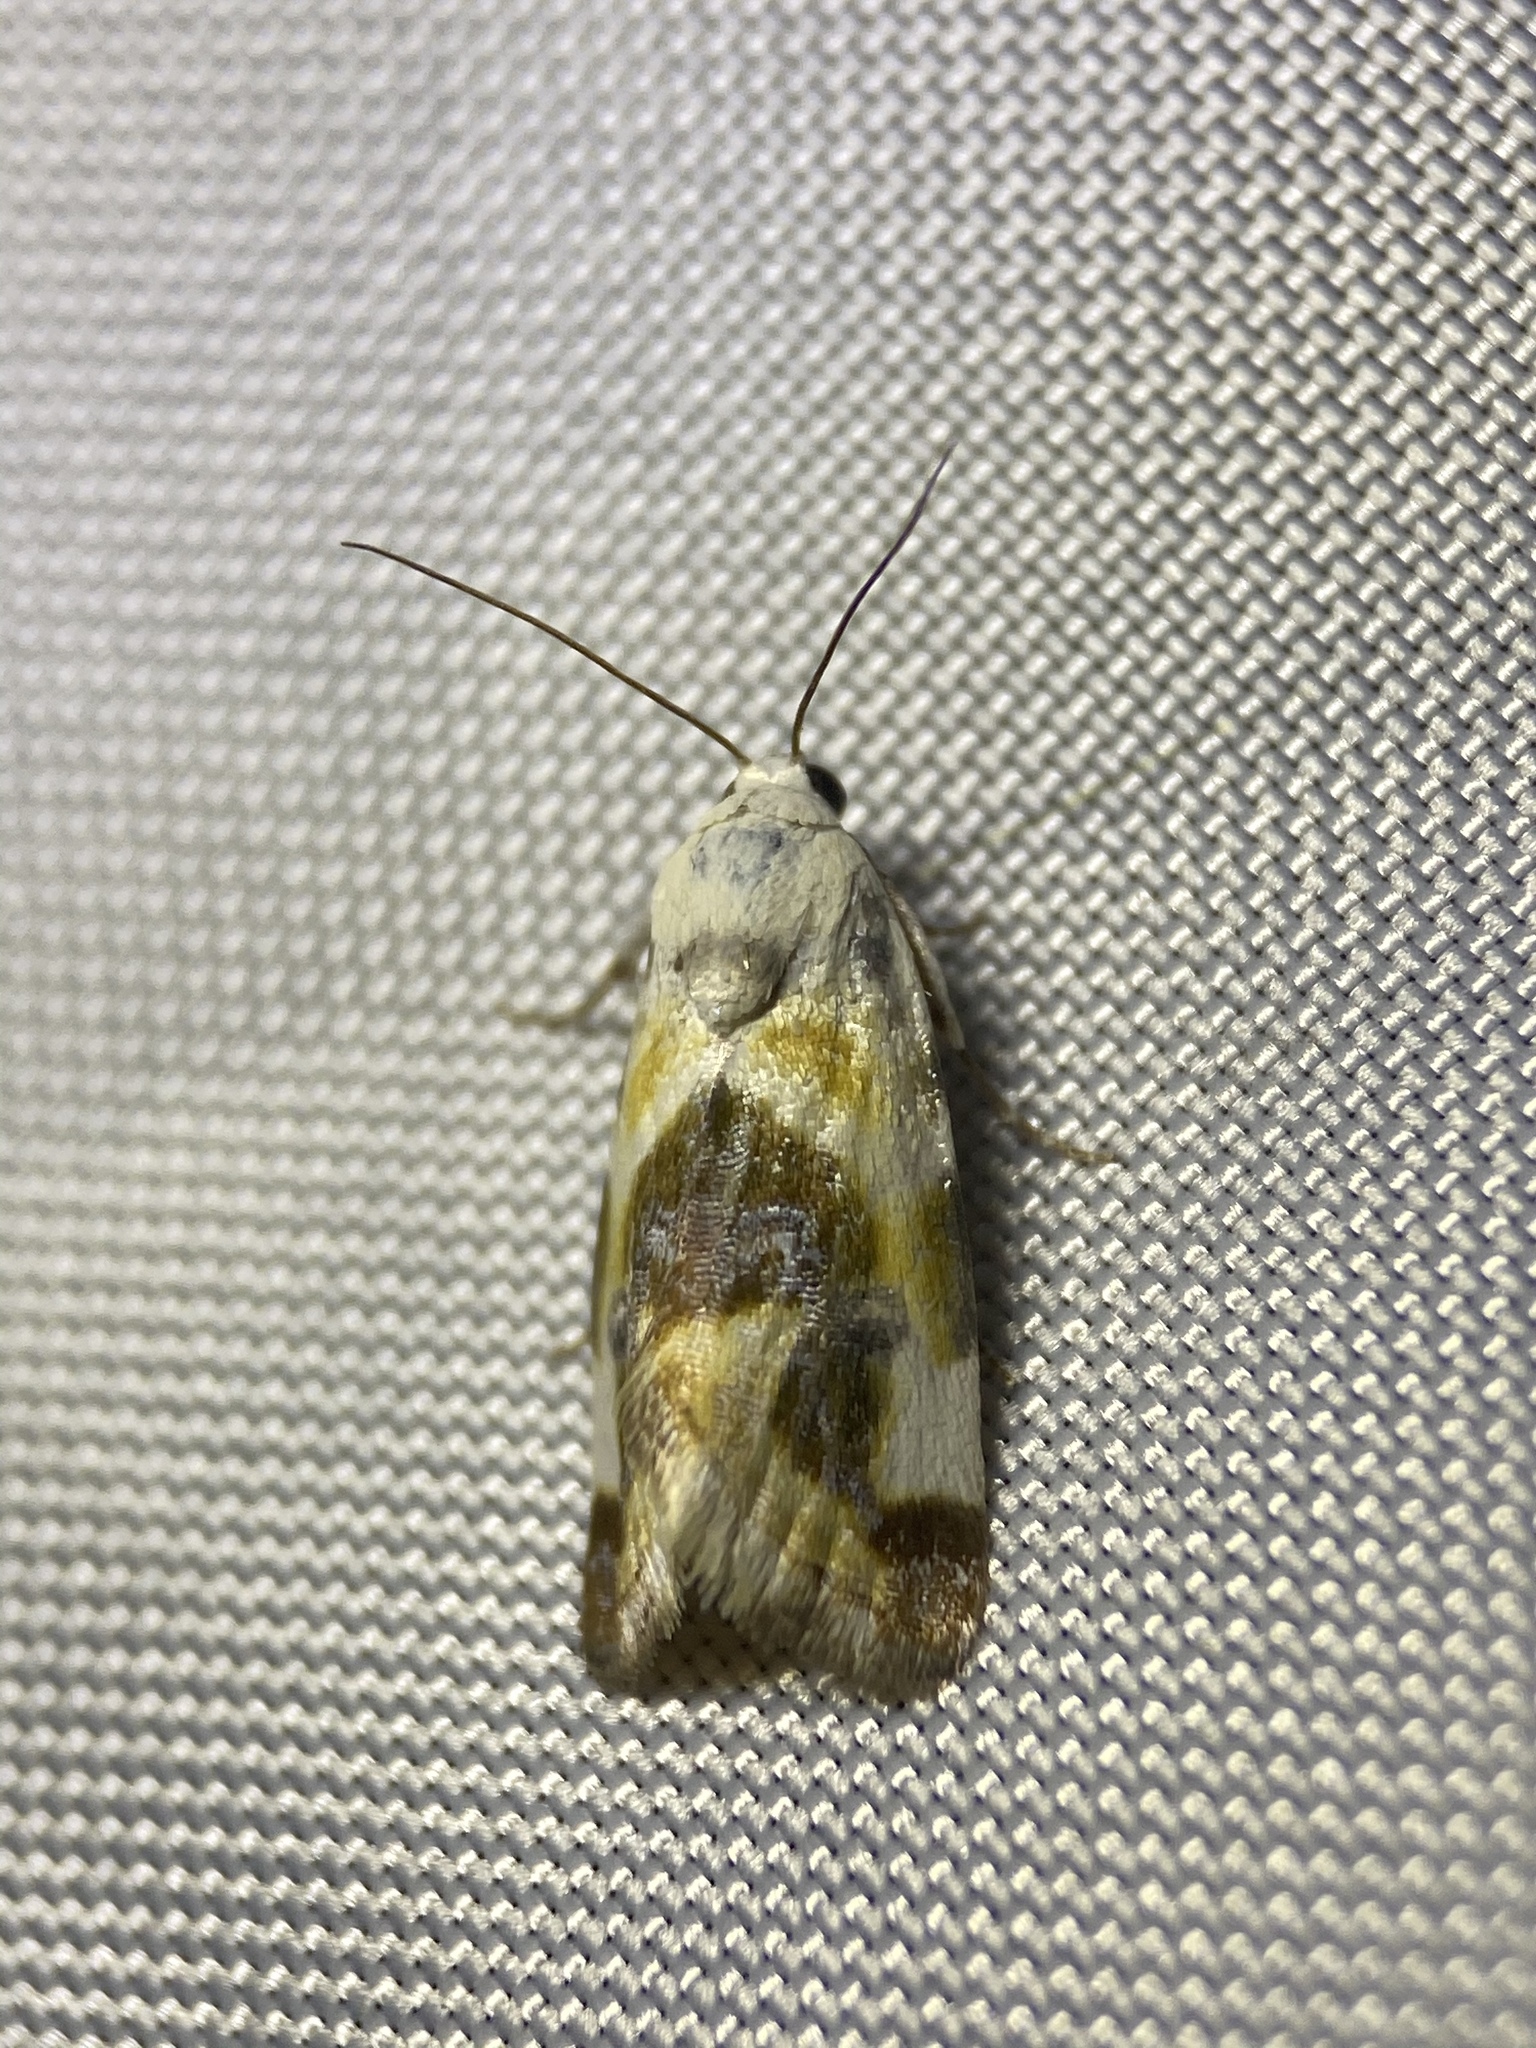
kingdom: Animalia
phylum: Arthropoda
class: Insecta
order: Lepidoptera
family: Noctuidae
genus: Acontia
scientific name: Acontia arida
